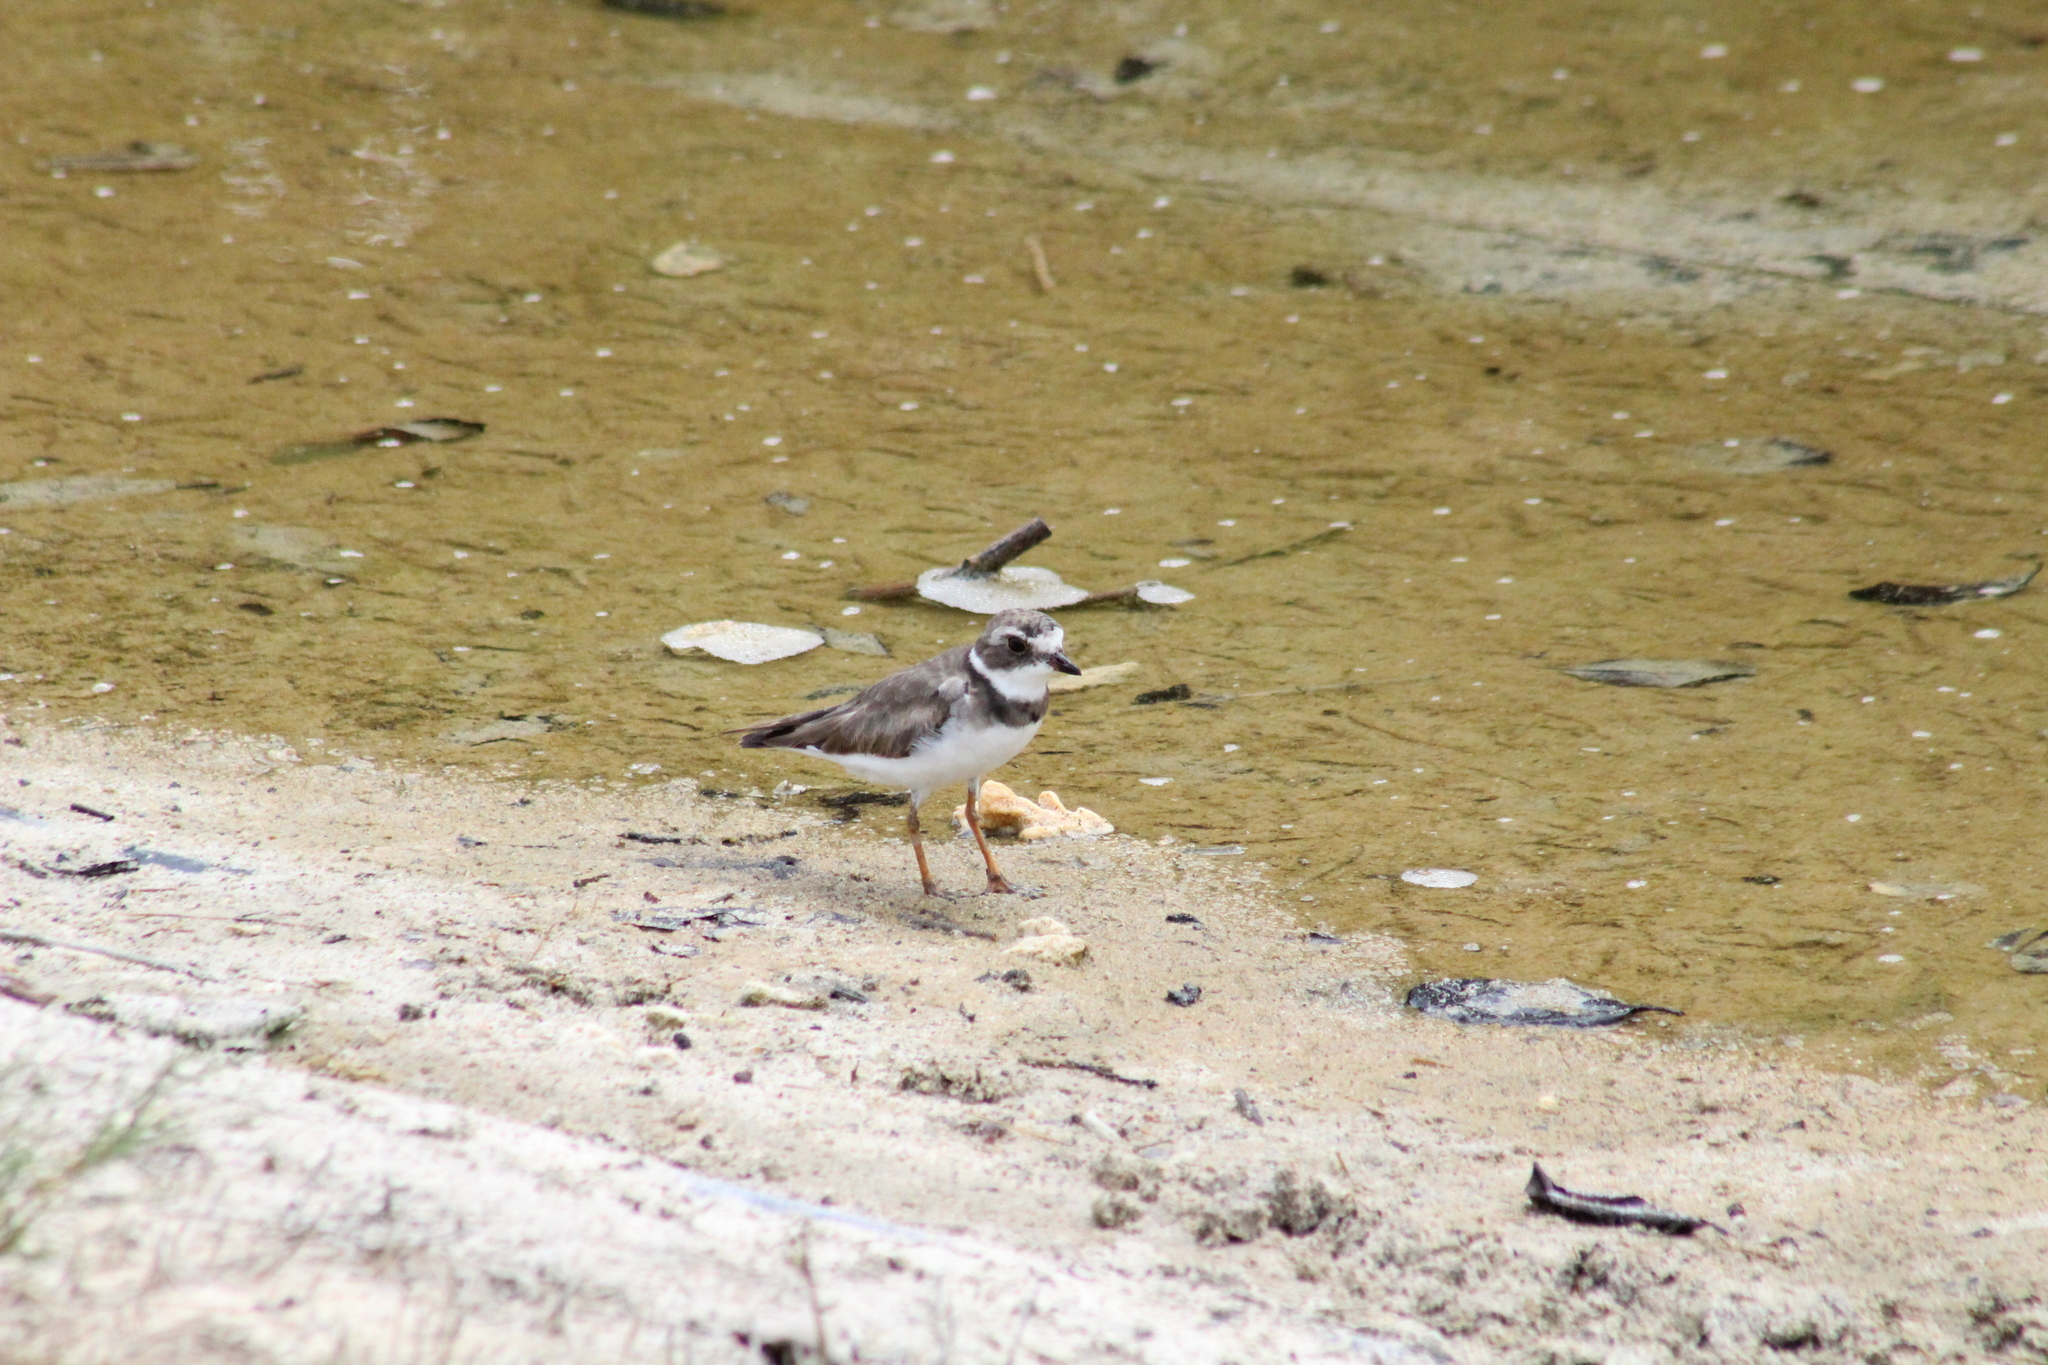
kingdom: Animalia
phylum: Chordata
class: Aves
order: Charadriiformes
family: Charadriidae
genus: Charadrius
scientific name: Charadrius semipalmatus
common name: Semipalmated plover
